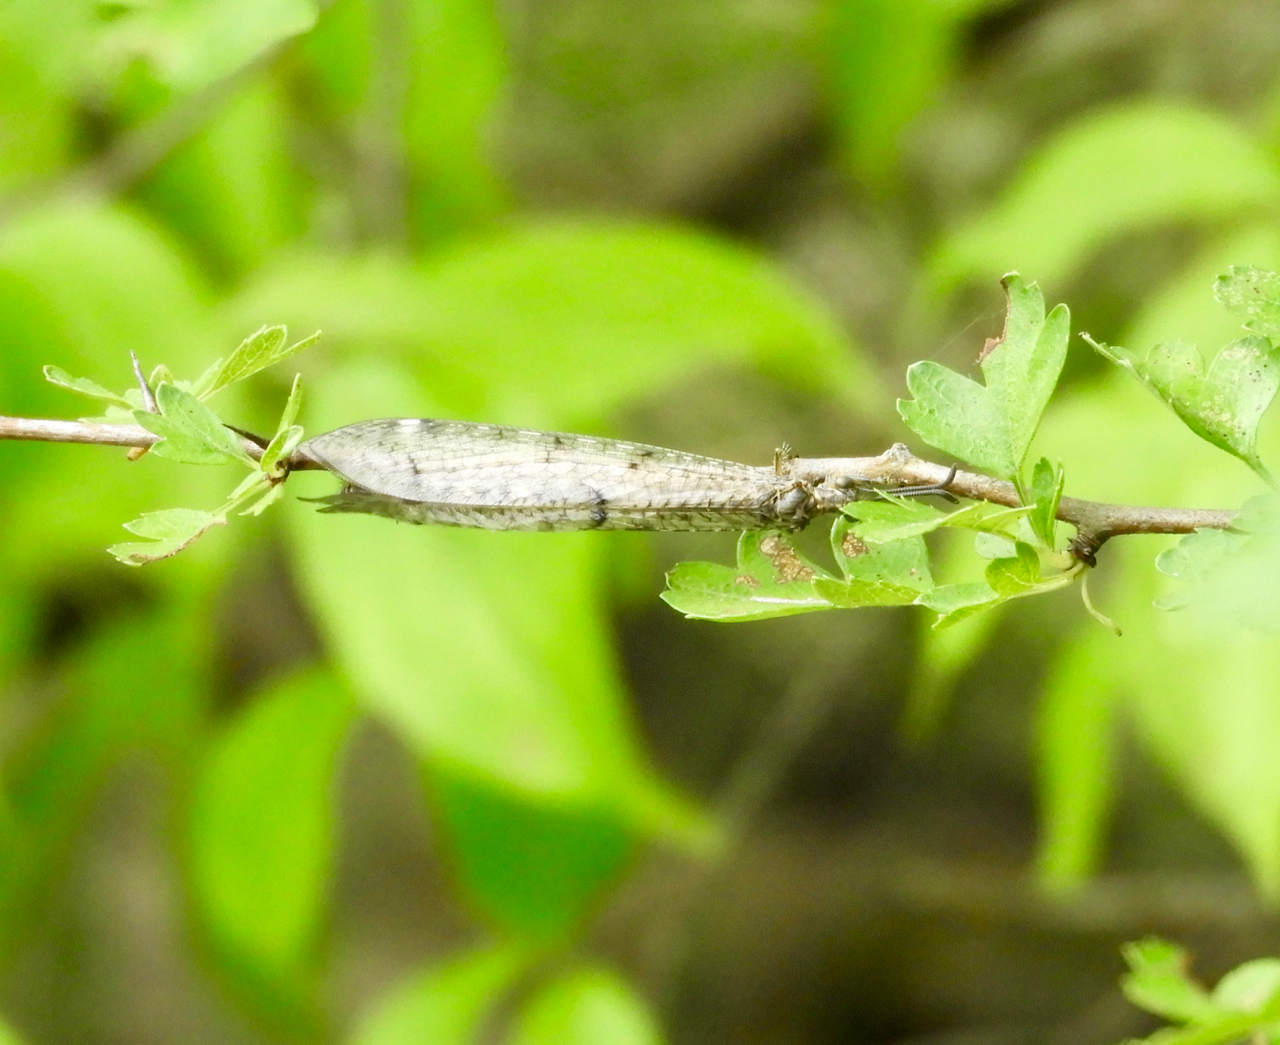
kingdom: Animalia
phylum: Arthropoda
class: Insecta
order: Neuroptera
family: Myrmeleontidae
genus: Distoleon
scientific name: Distoleon tetragrammicus
